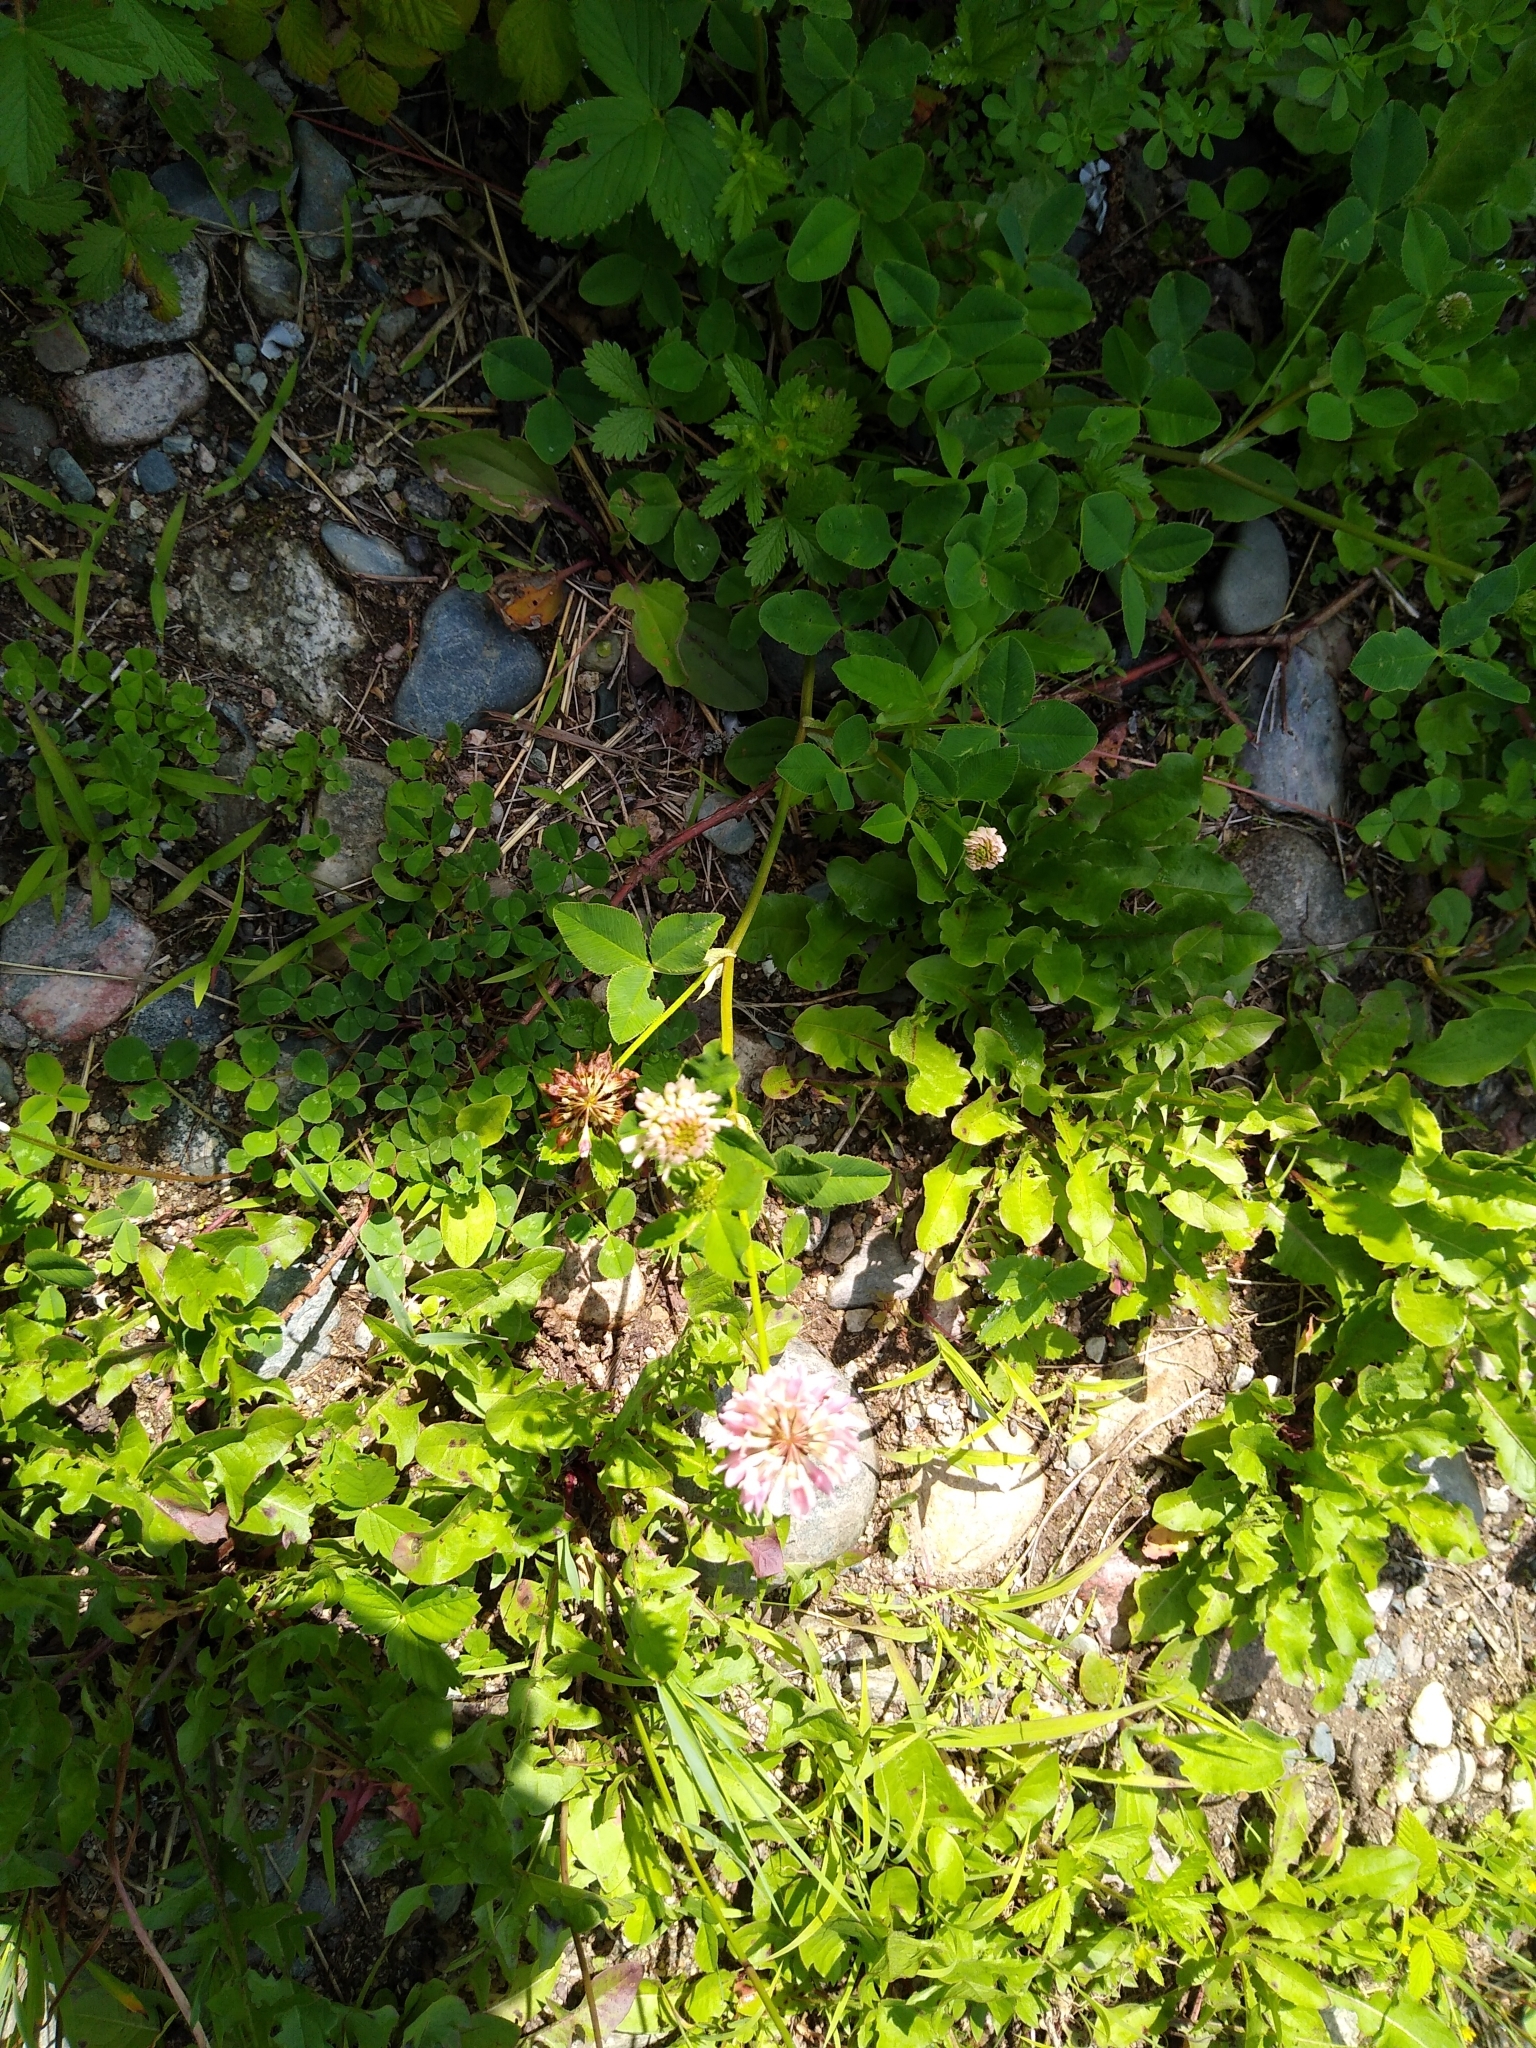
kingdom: Plantae
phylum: Tracheophyta
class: Magnoliopsida
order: Fabales
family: Fabaceae
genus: Trifolium
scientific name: Trifolium hybridum
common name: Alsike clover
